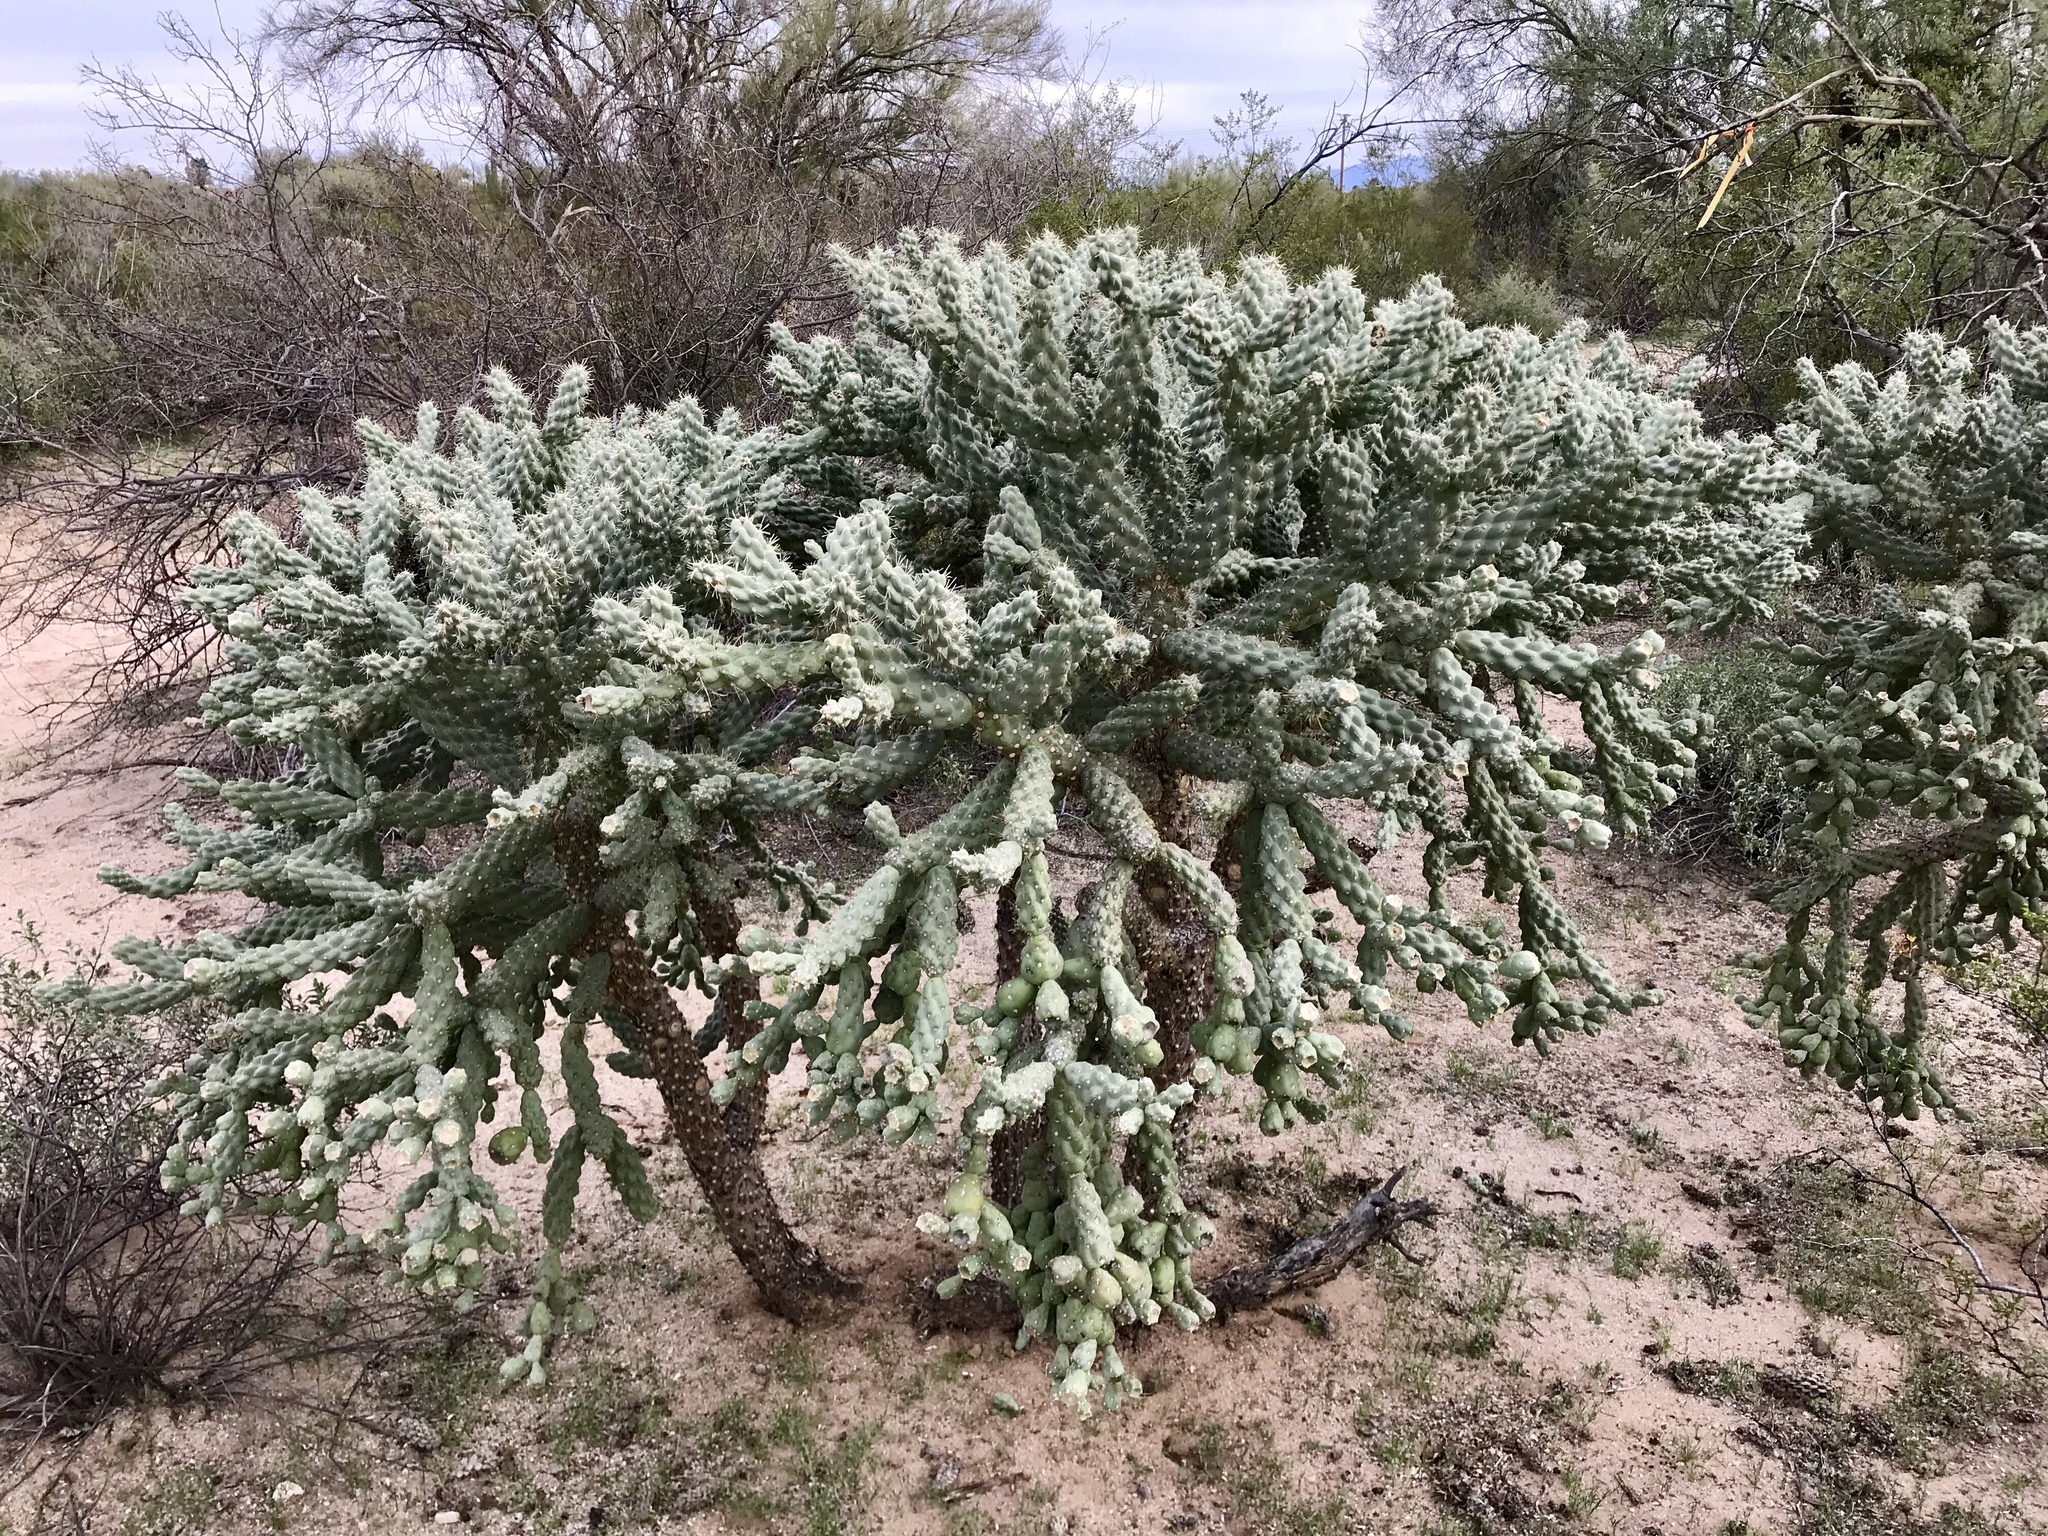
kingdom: Plantae
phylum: Tracheophyta
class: Magnoliopsida
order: Caryophyllales
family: Cactaceae
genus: Cylindropuntia
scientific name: Cylindropuntia fulgida
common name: Jumping cholla
